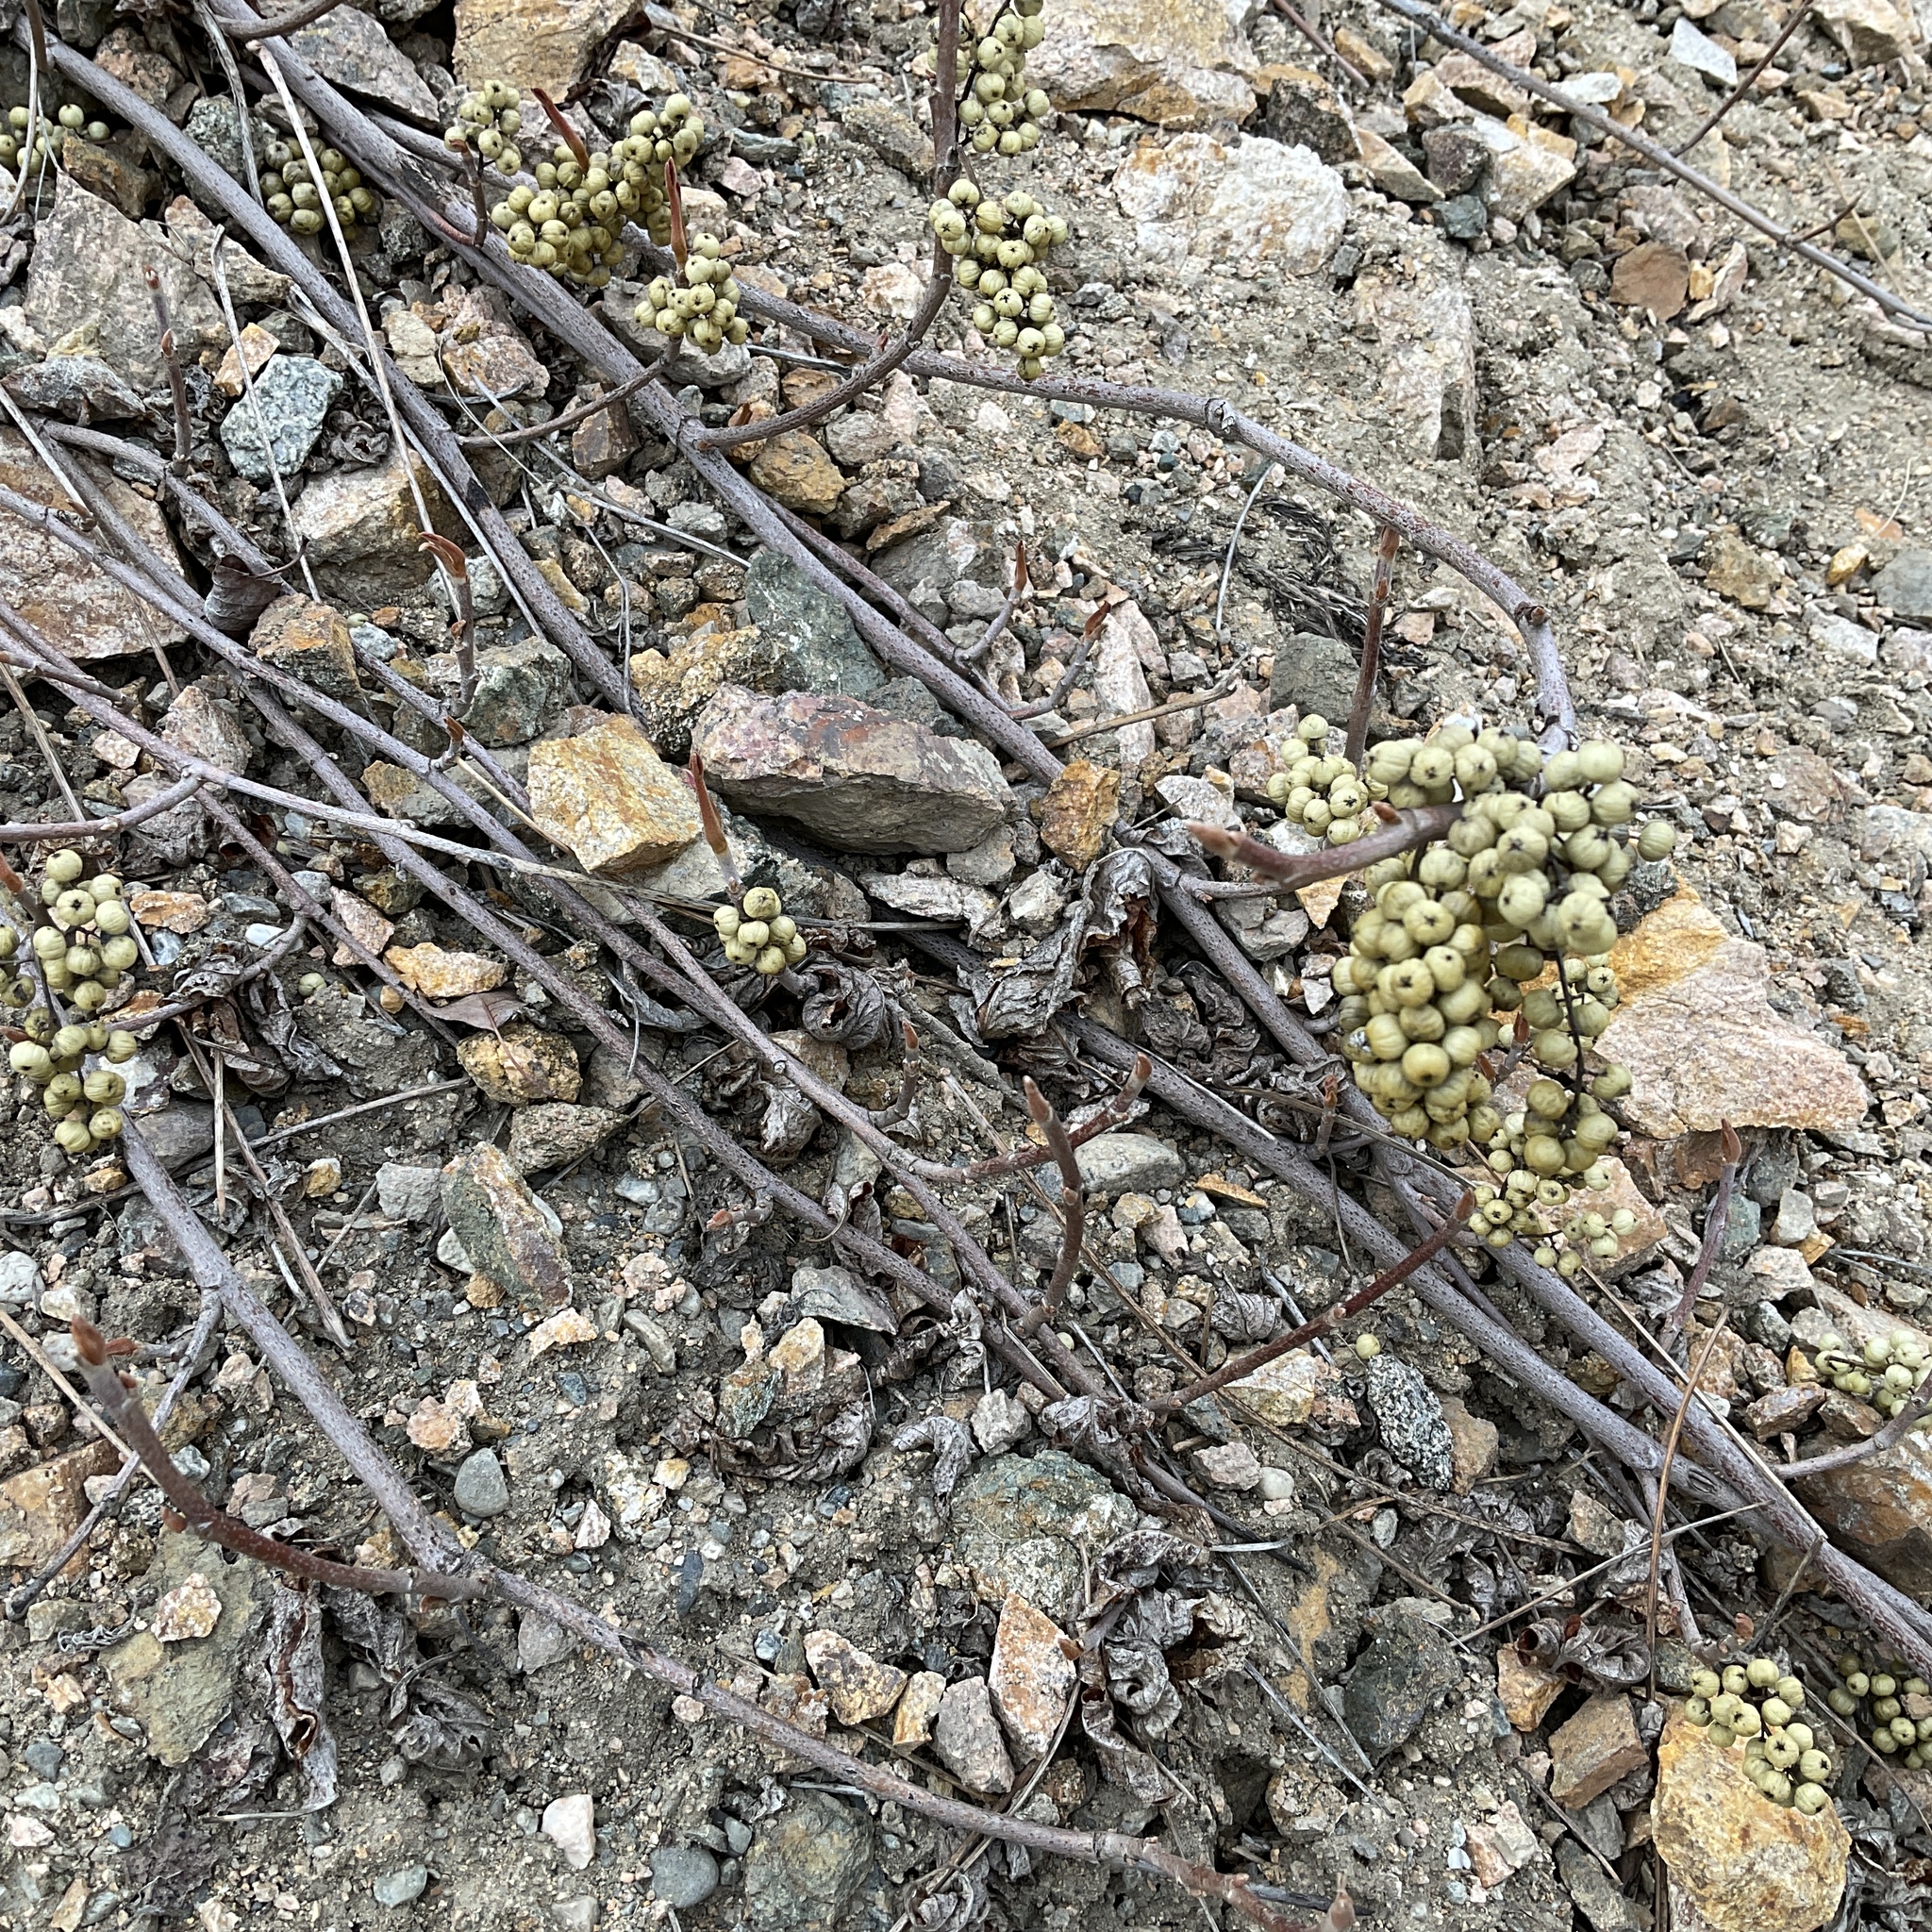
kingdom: Plantae
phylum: Tracheophyta
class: Magnoliopsida
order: Sapindales
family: Anacardiaceae
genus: Toxicodendron
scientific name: Toxicodendron rydbergii
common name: Rydberg's poison-ivy
